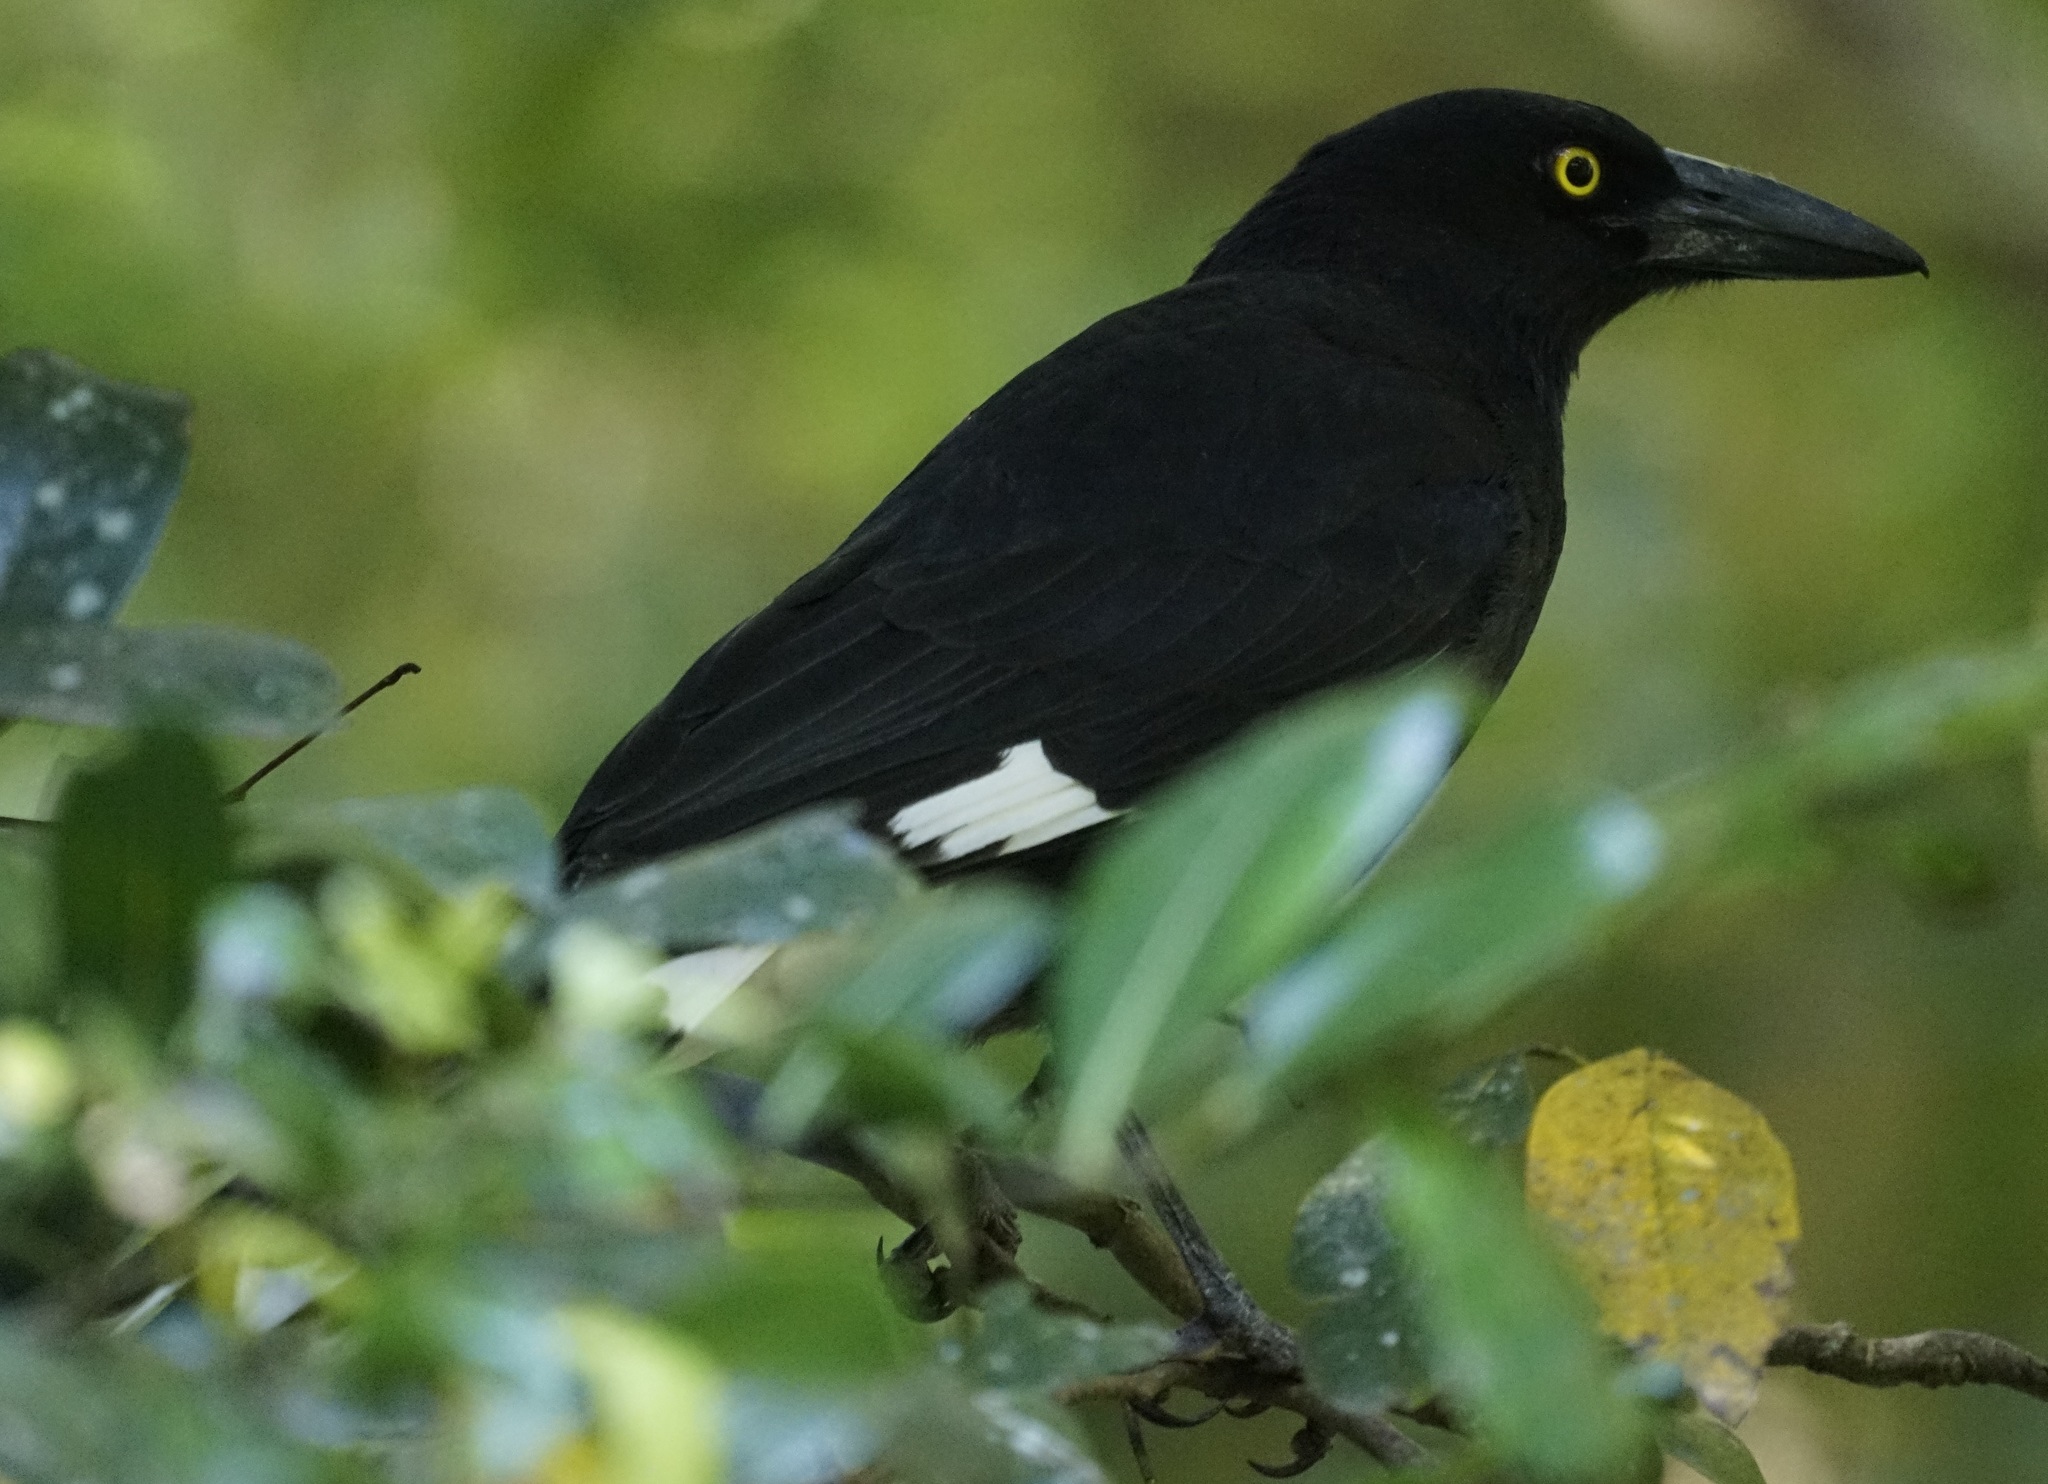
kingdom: Animalia
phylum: Chordata
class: Aves
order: Passeriformes
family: Cracticidae
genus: Strepera
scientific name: Strepera graculina
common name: Pied currawong
